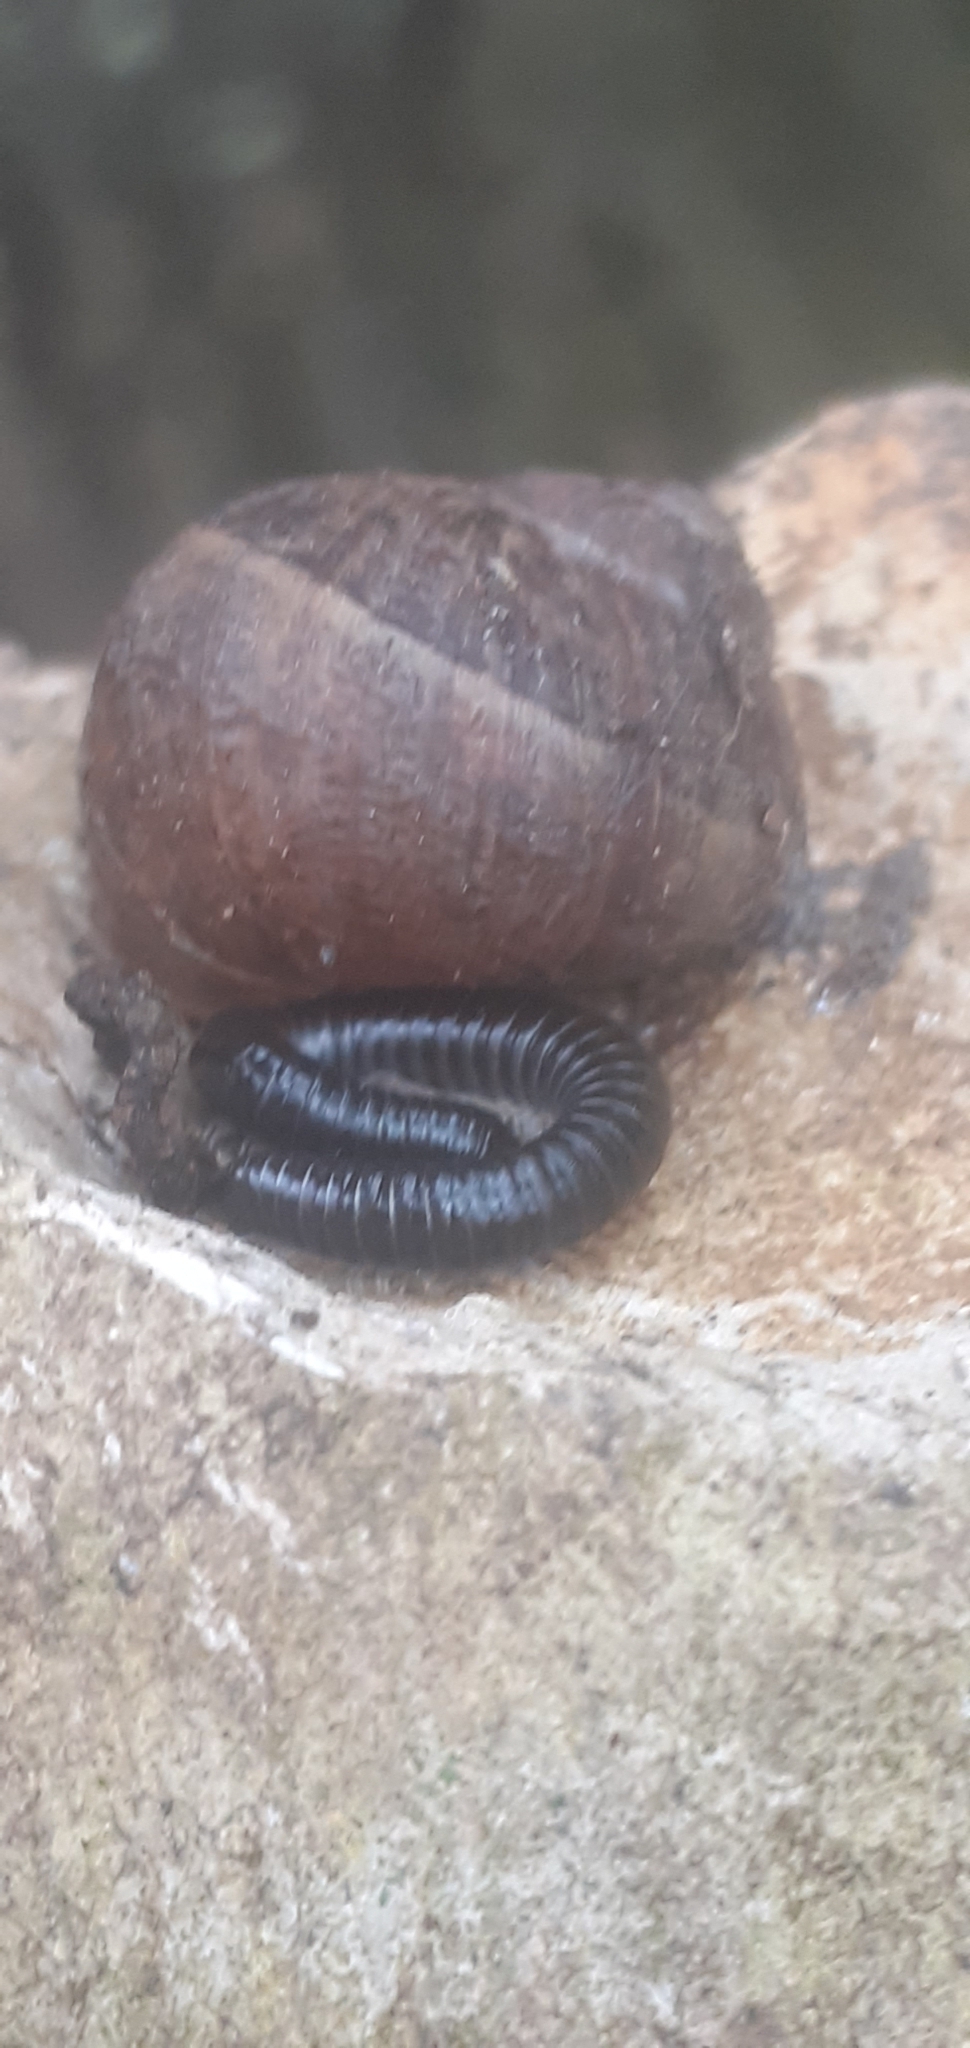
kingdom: Animalia
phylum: Arthropoda
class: Diplopoda
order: Julida
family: Julidae
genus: Tachypodoiulus
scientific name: Tachypodoiulus niger
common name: White-legged snake millipede
